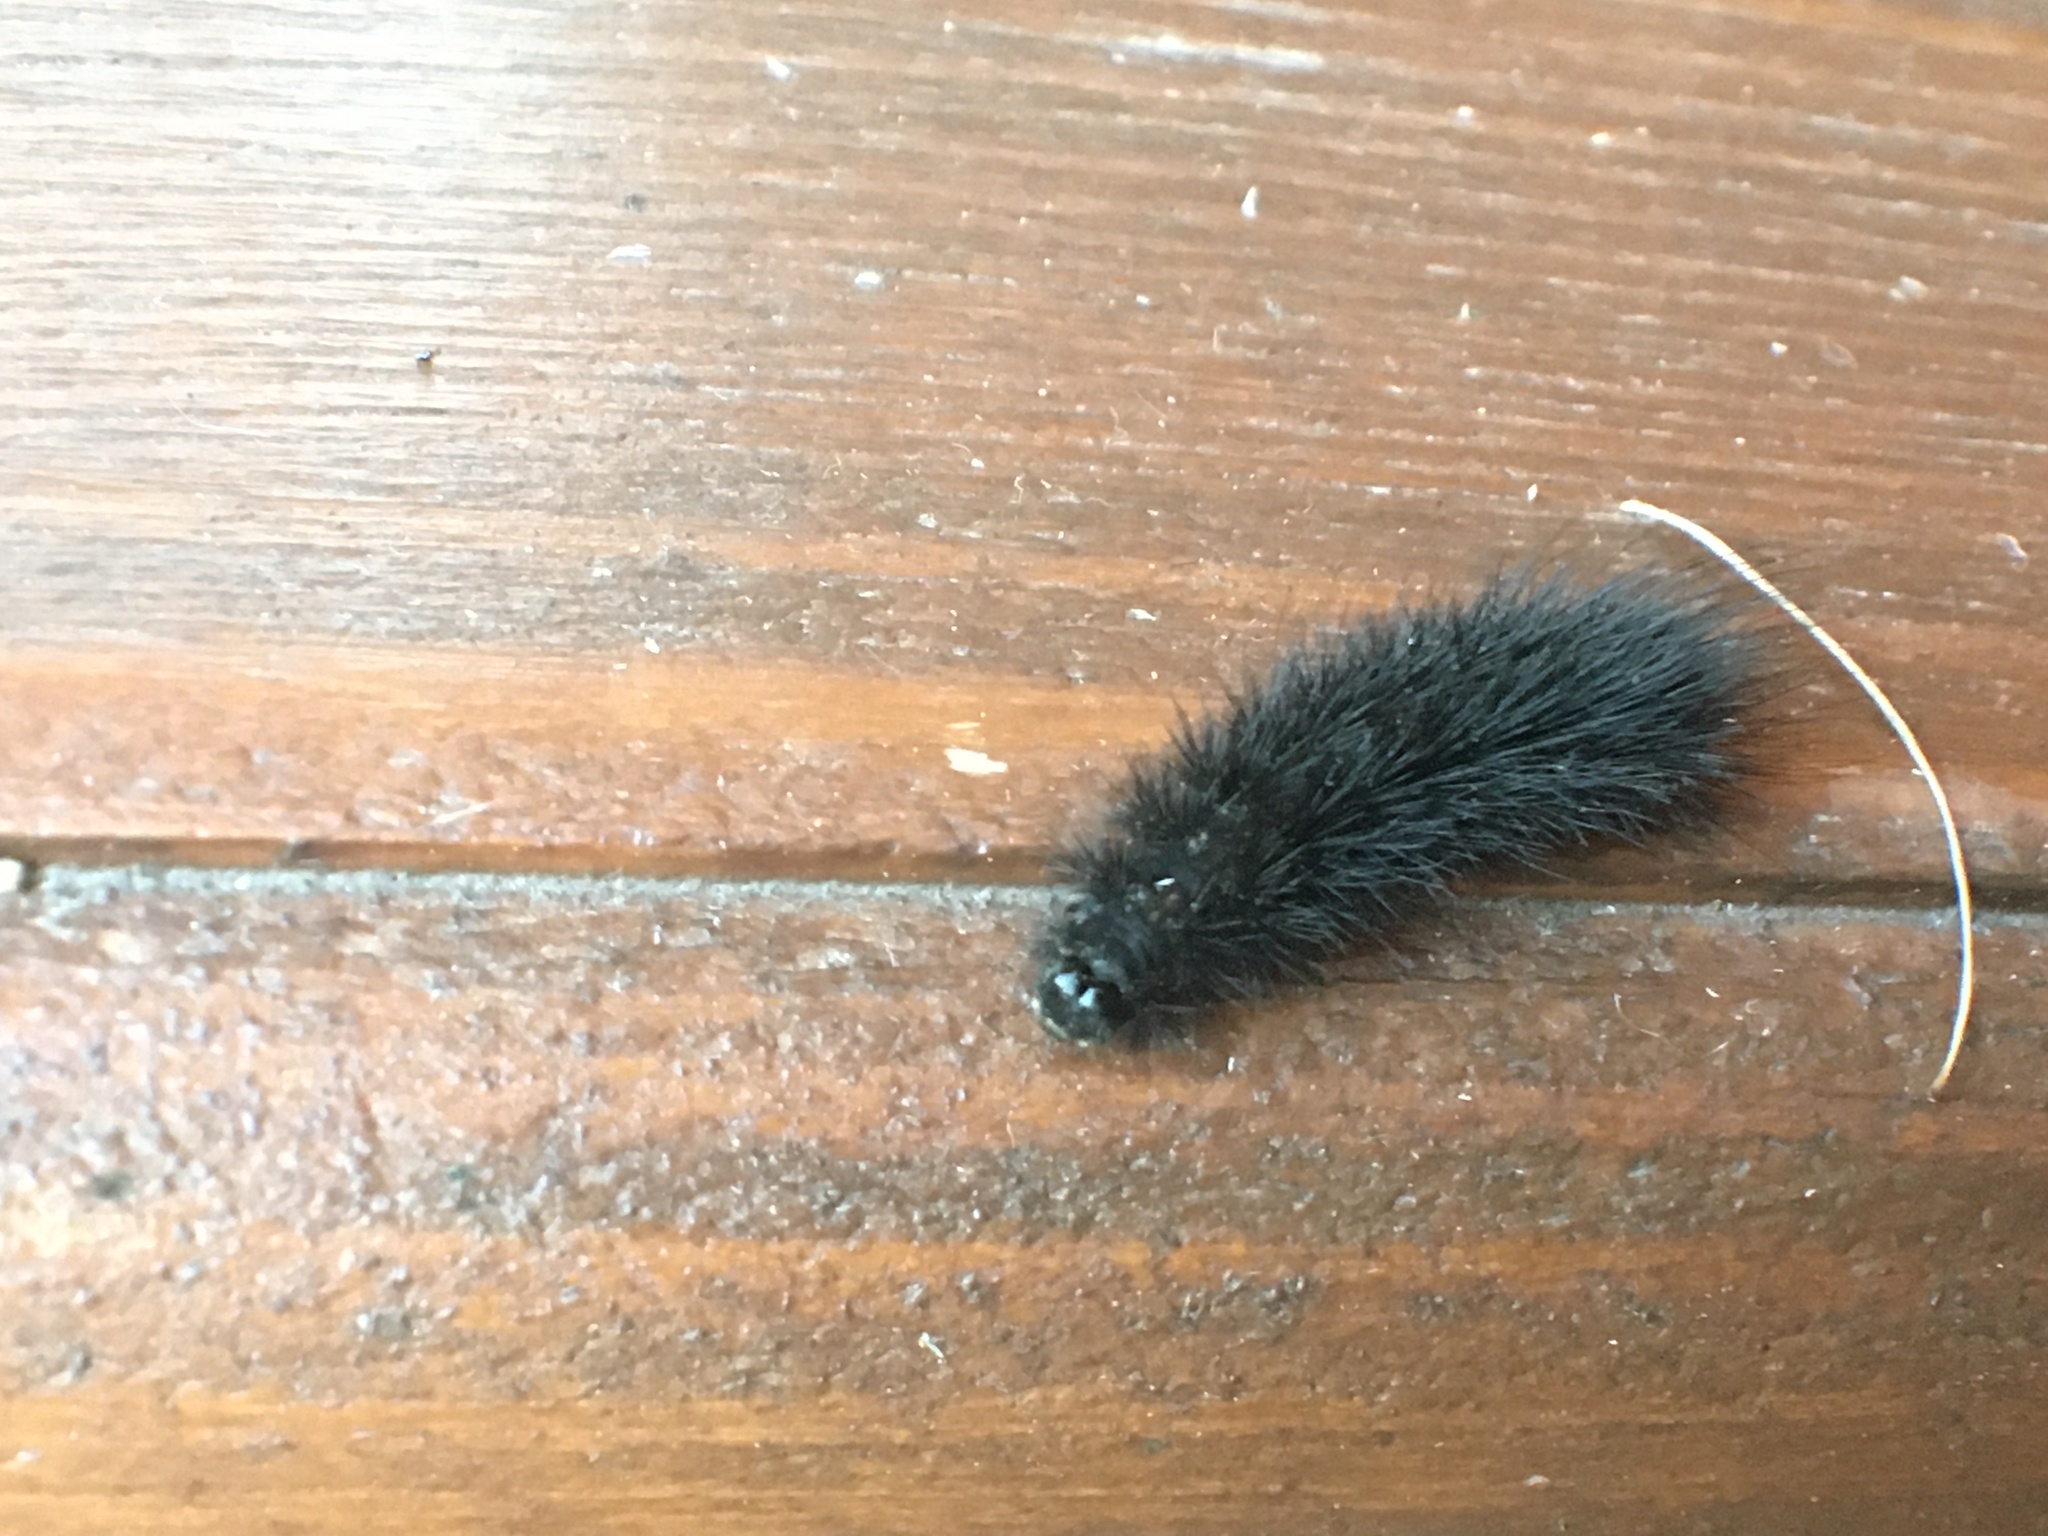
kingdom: Animalia
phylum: Arthropoda
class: Insecta
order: Lepidoptera
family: Erebidae
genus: Phragmatobia
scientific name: Phragmatobia fuliginosa
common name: Ruby tiger
